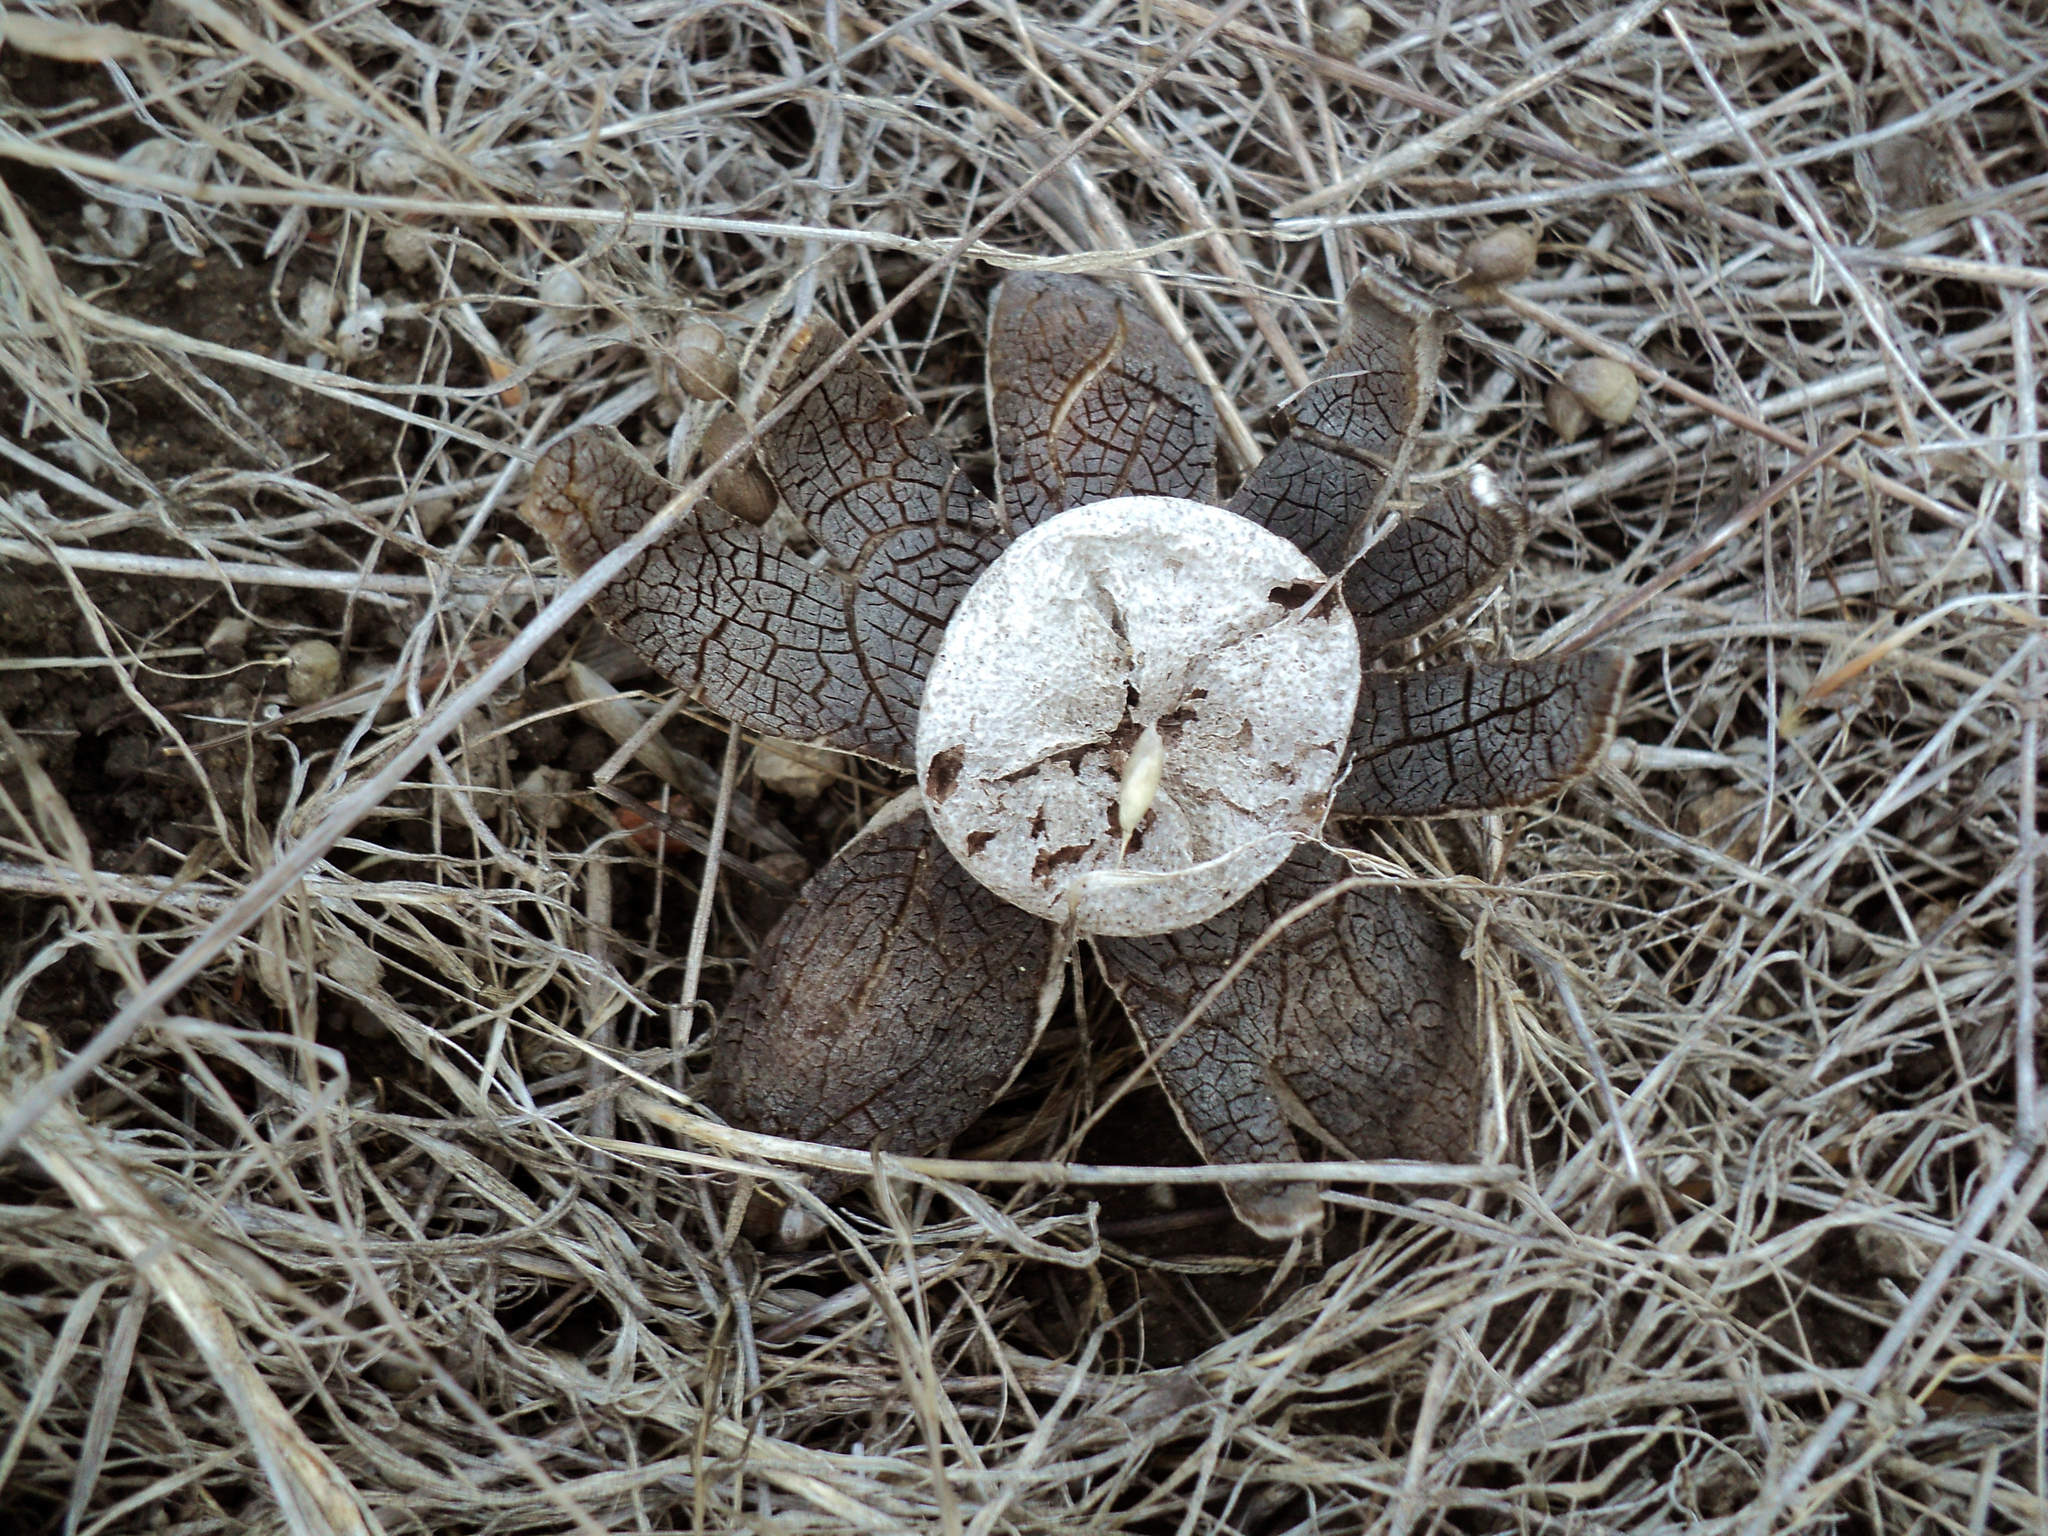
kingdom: Fungi
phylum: Basidiomycota
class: Agaricomycetes
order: Boletales
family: Diplocystidiaceae
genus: Astraeus
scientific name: Astraeus hygrometricus
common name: Barometer earthstar
